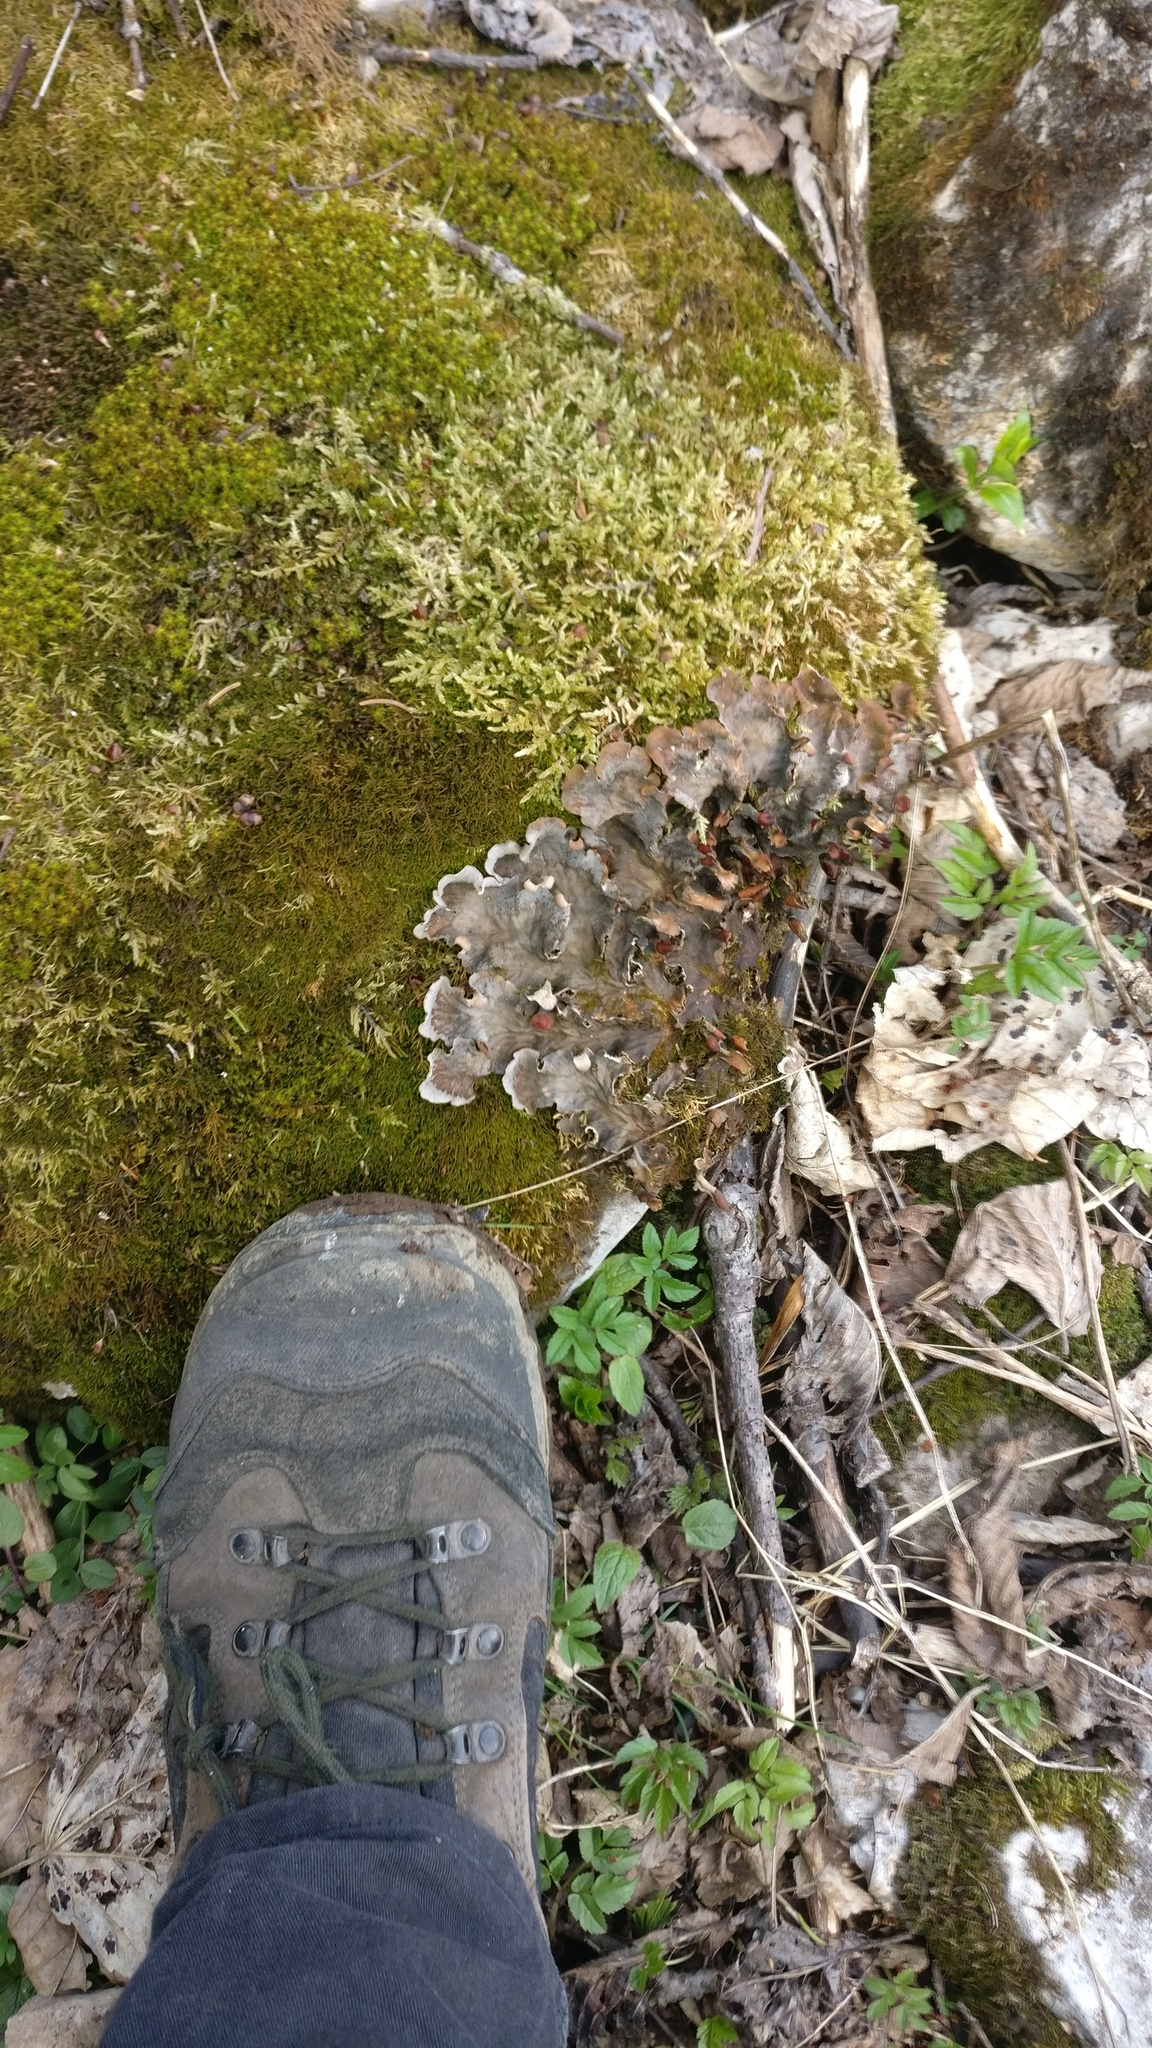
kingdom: Fungi
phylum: Ascomycota
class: Lecanoromycetes
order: Peltigerales
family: Peltigeraceae
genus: Peltigera
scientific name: Peltigera
